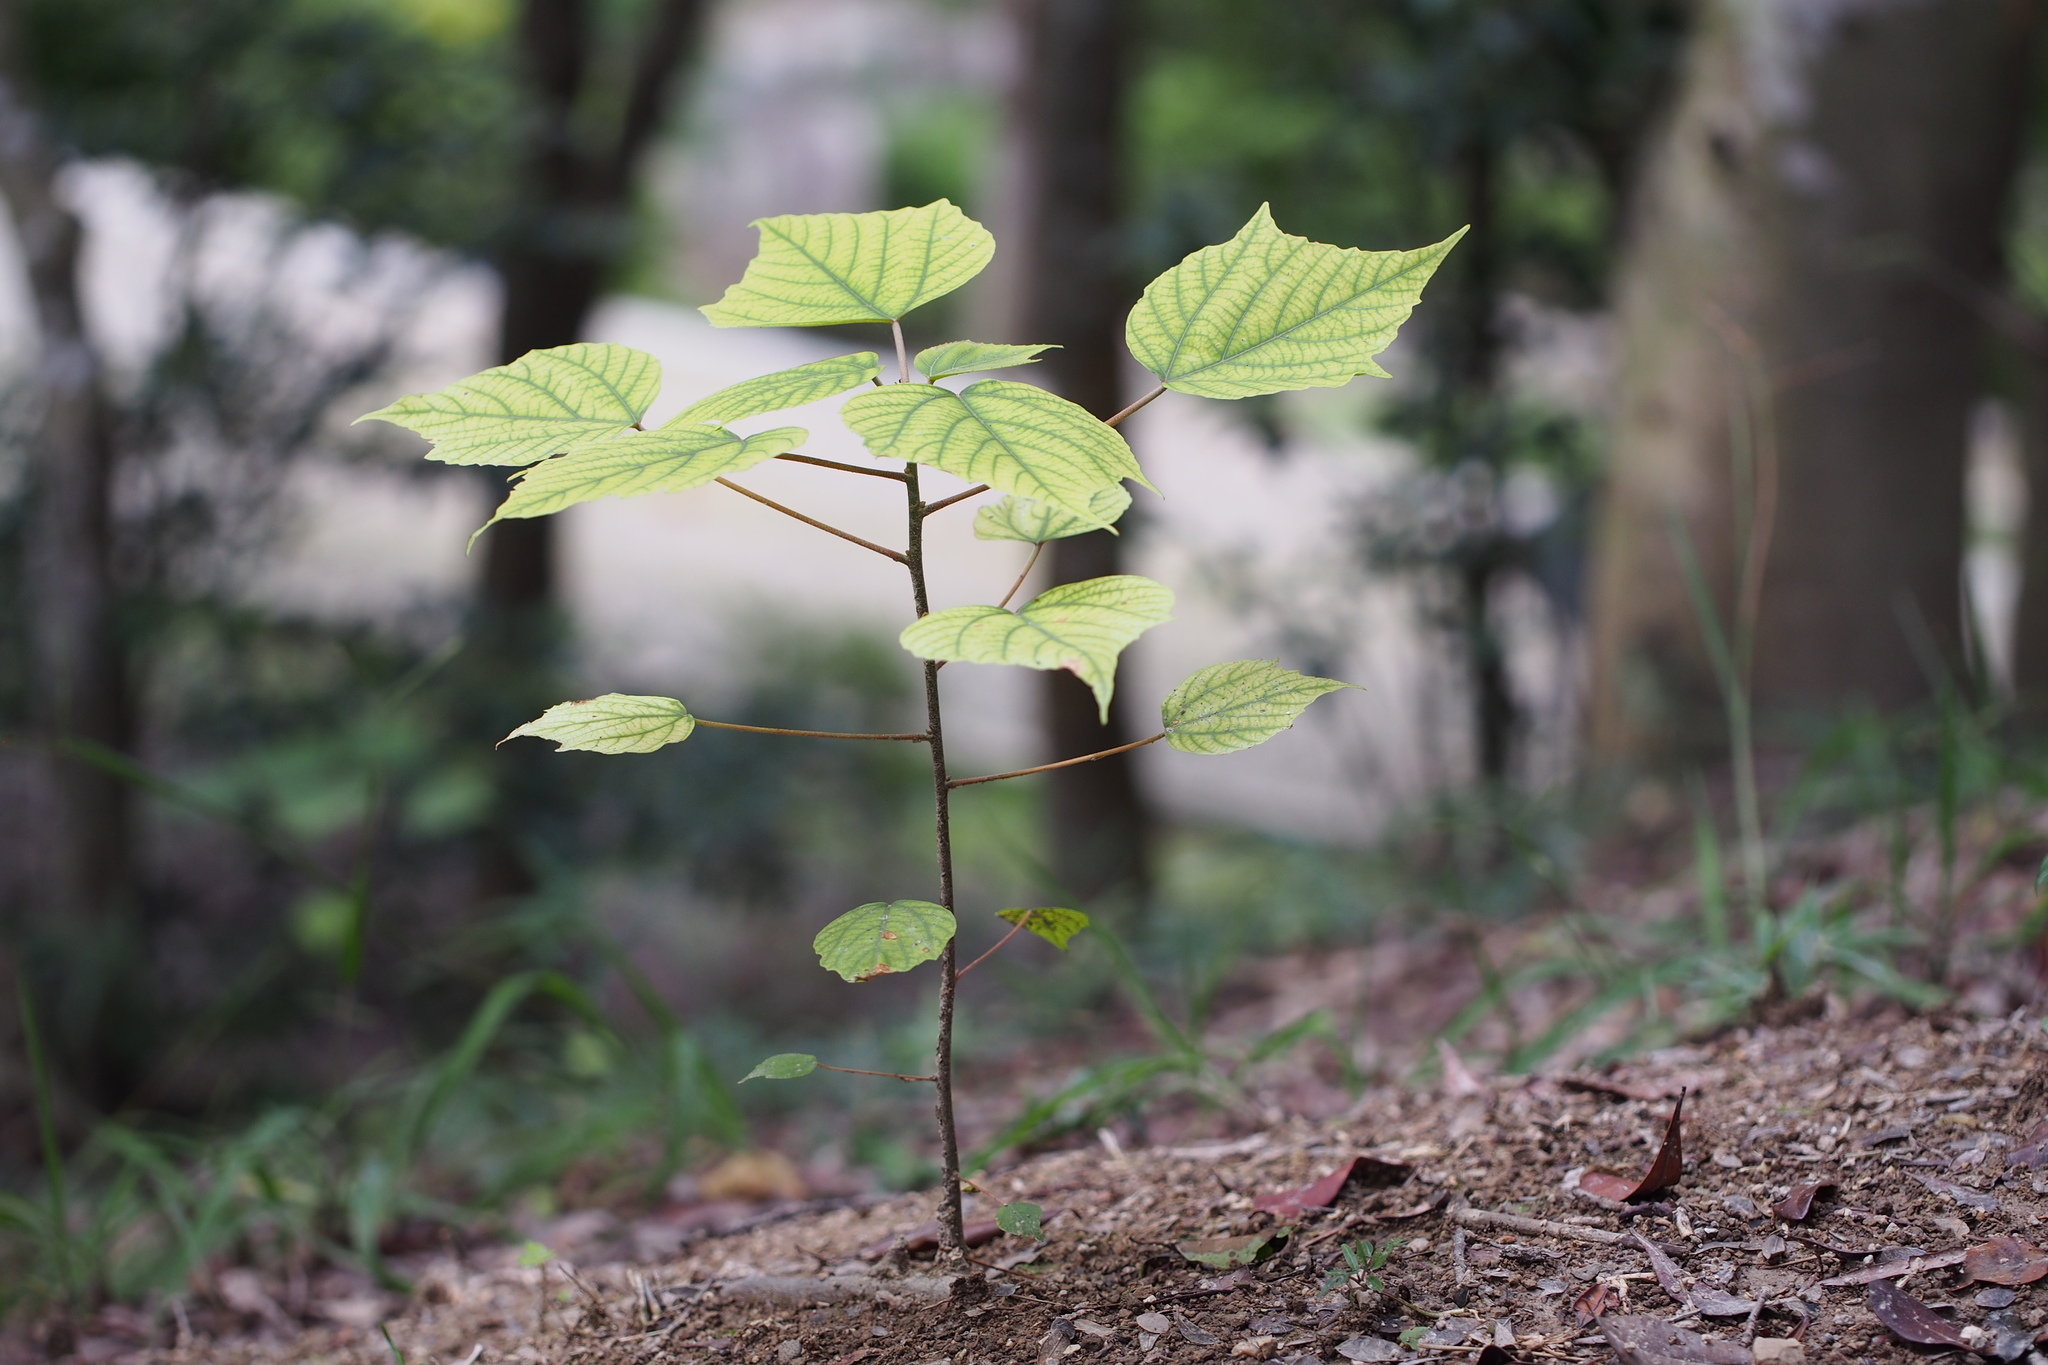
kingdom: Plantae
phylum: Tracheophyta
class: Magnoliopsida
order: Malpighiales
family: Euphorbiaceae
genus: Mallotus
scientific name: Mallotus japonicus
